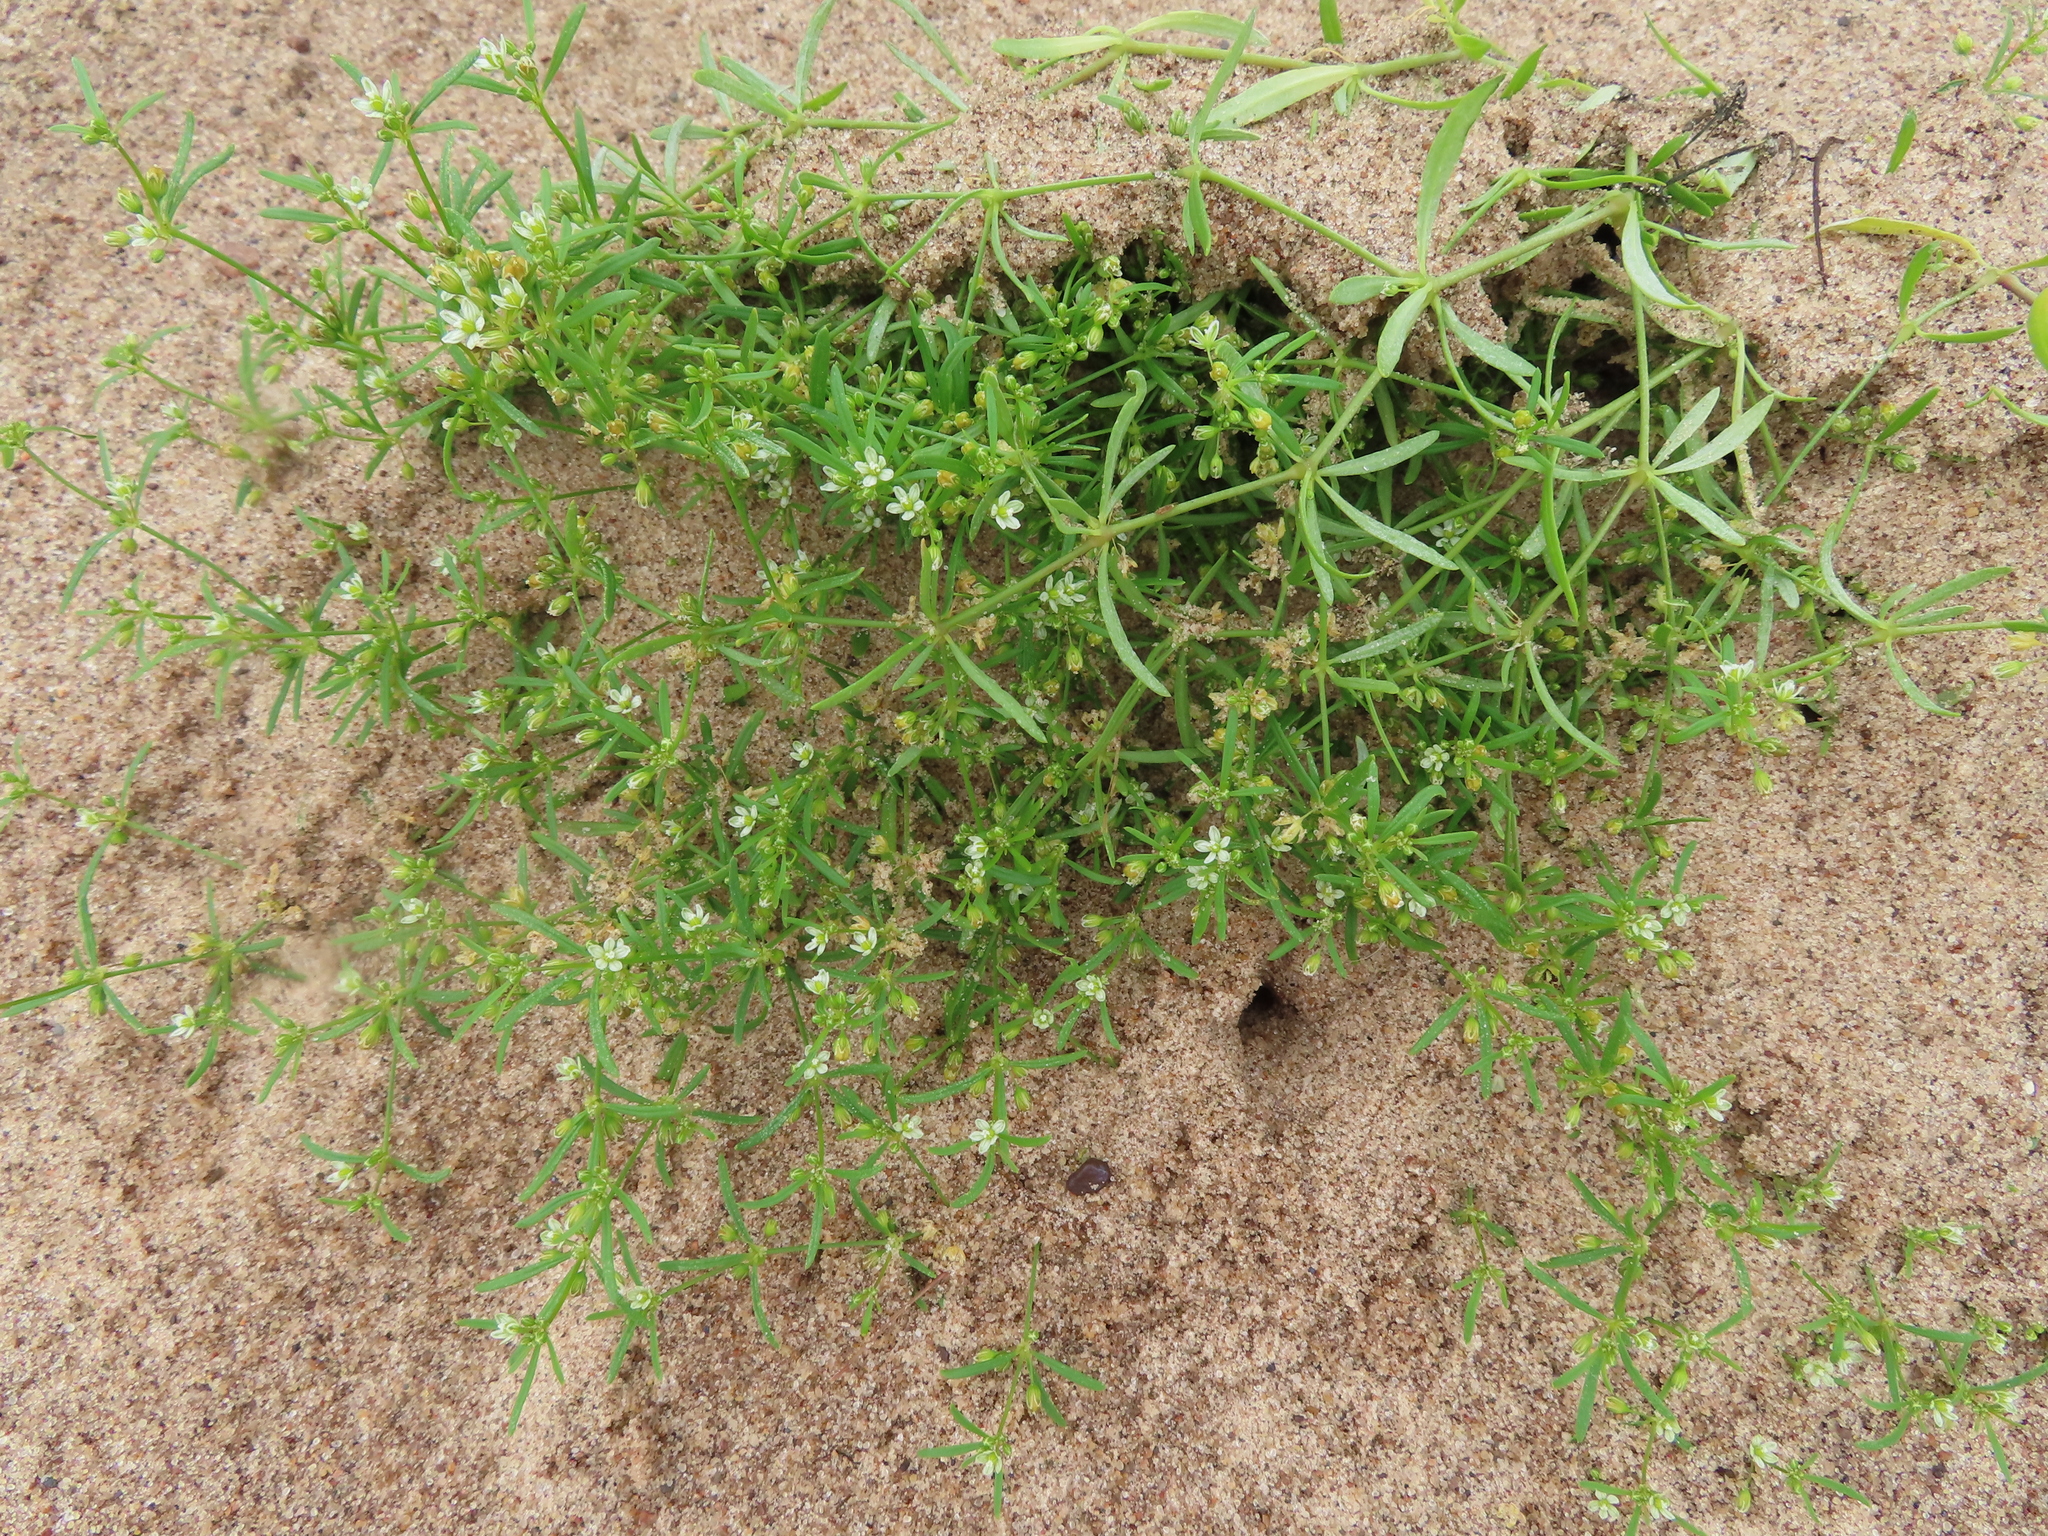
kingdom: Plantae
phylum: Tracheophyta
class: Magnoliopsida
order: Caryophyllales
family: Molluginaceae
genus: Mollugo
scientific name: Mollugo verticillata
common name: Green carpetweed
